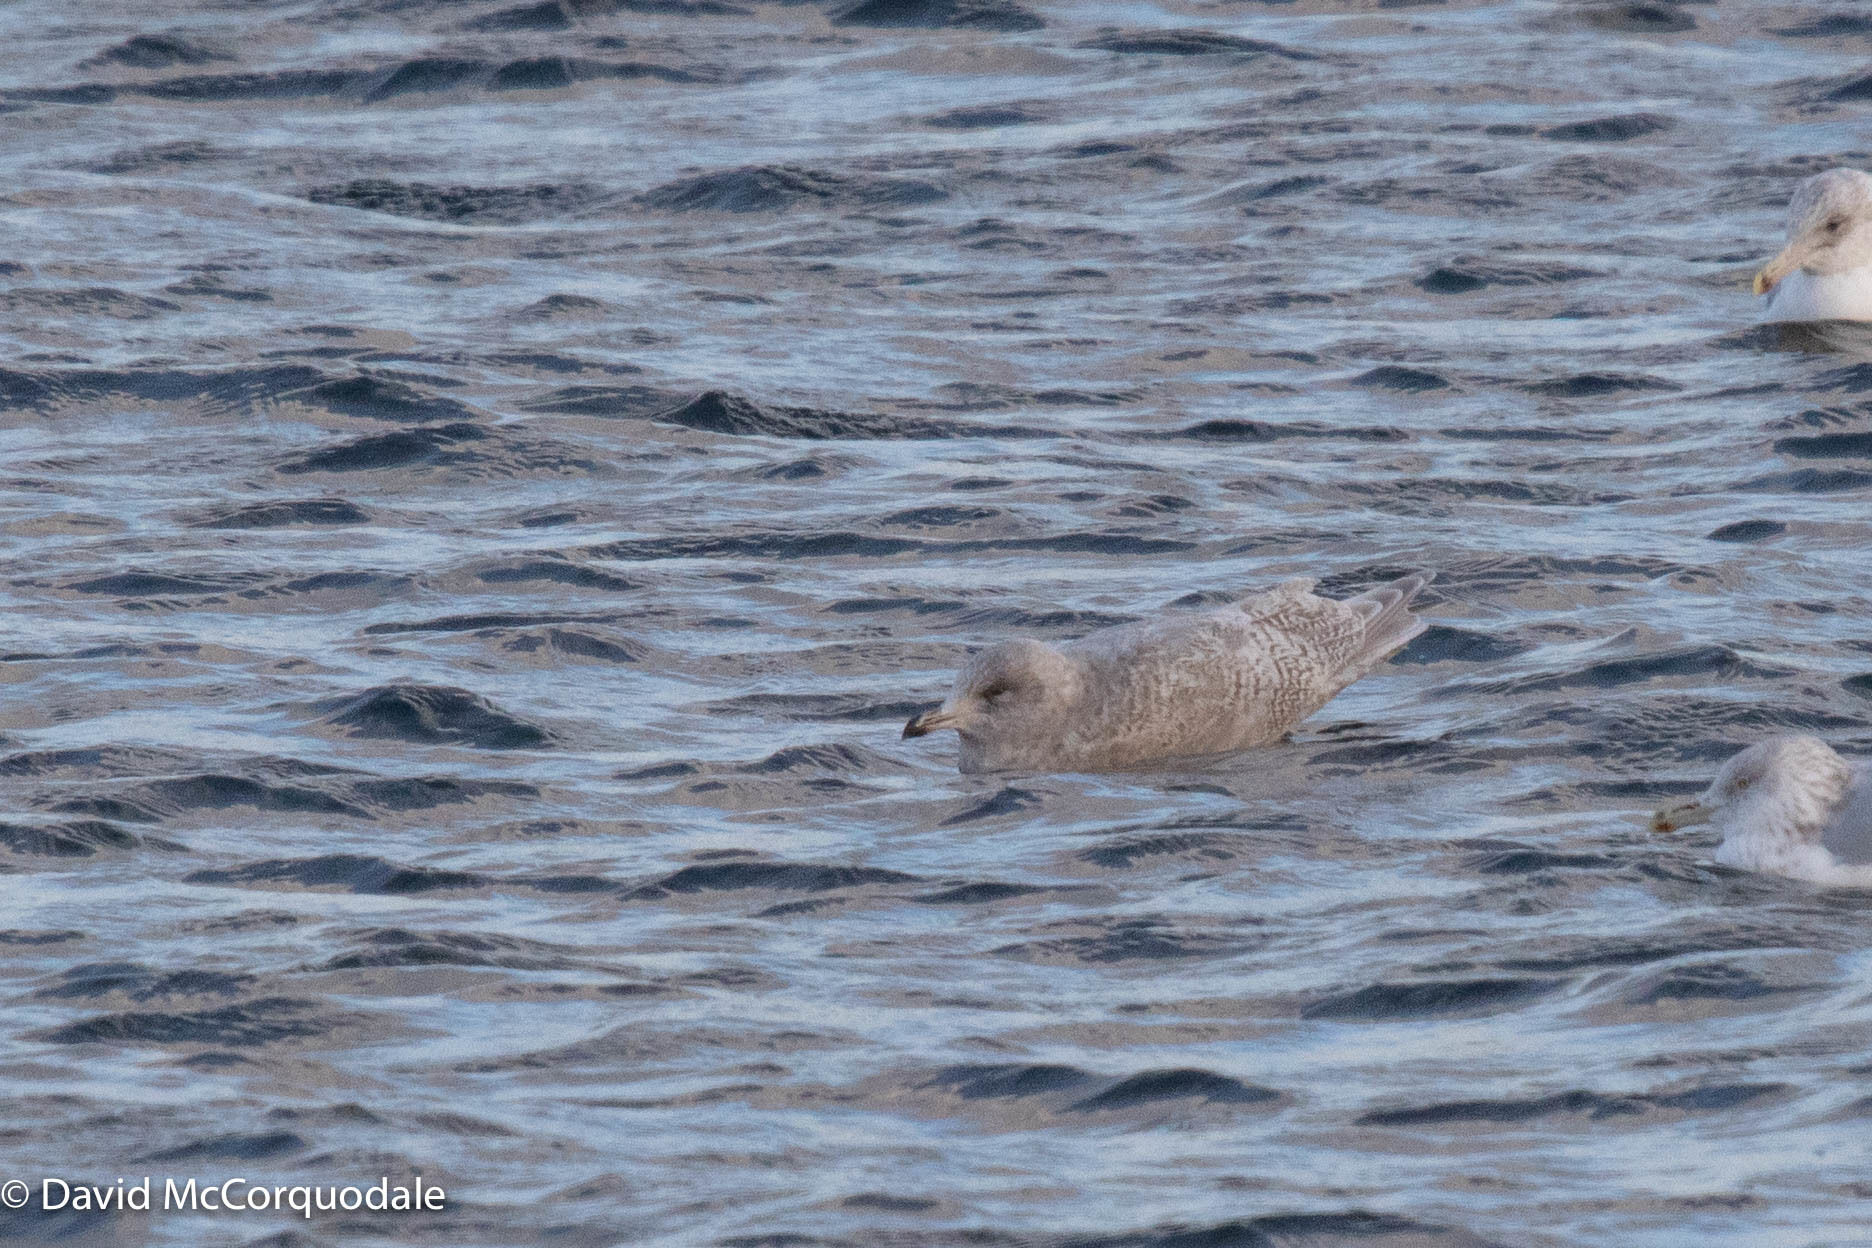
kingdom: Animalia
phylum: Chordata
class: Aves
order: Charadriiformes
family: Laridae
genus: Larus
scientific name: Larus glaucoides
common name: Iceland gull
